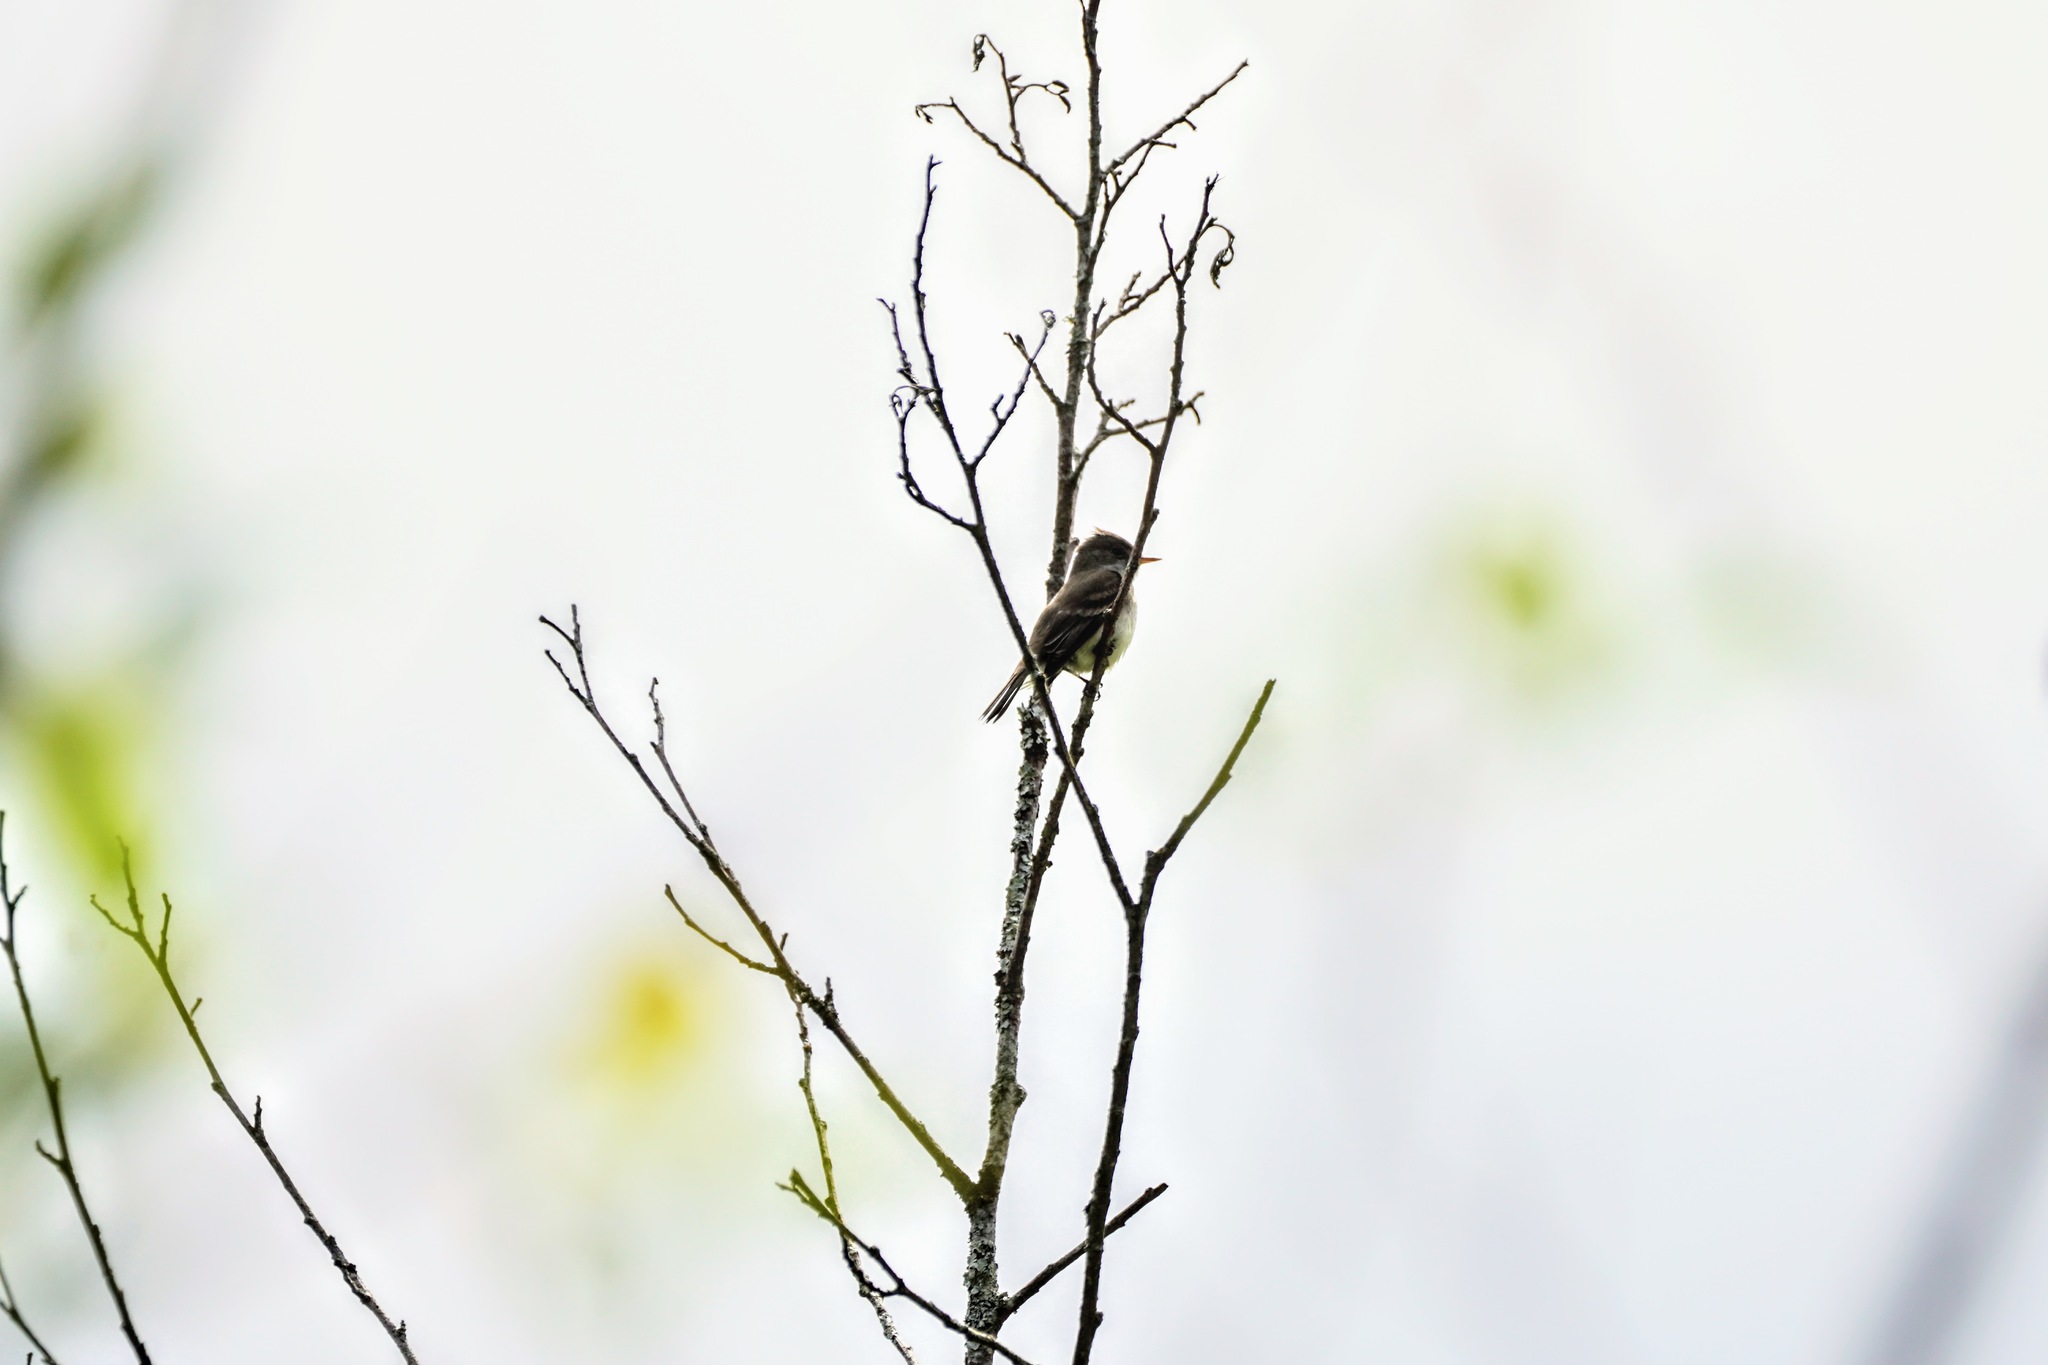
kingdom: Animalia
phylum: Chordata
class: Aves
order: Passeriformes
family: Tyrannidae
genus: Empidonax
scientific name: Empidonax traillii
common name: Willow flycatcher
